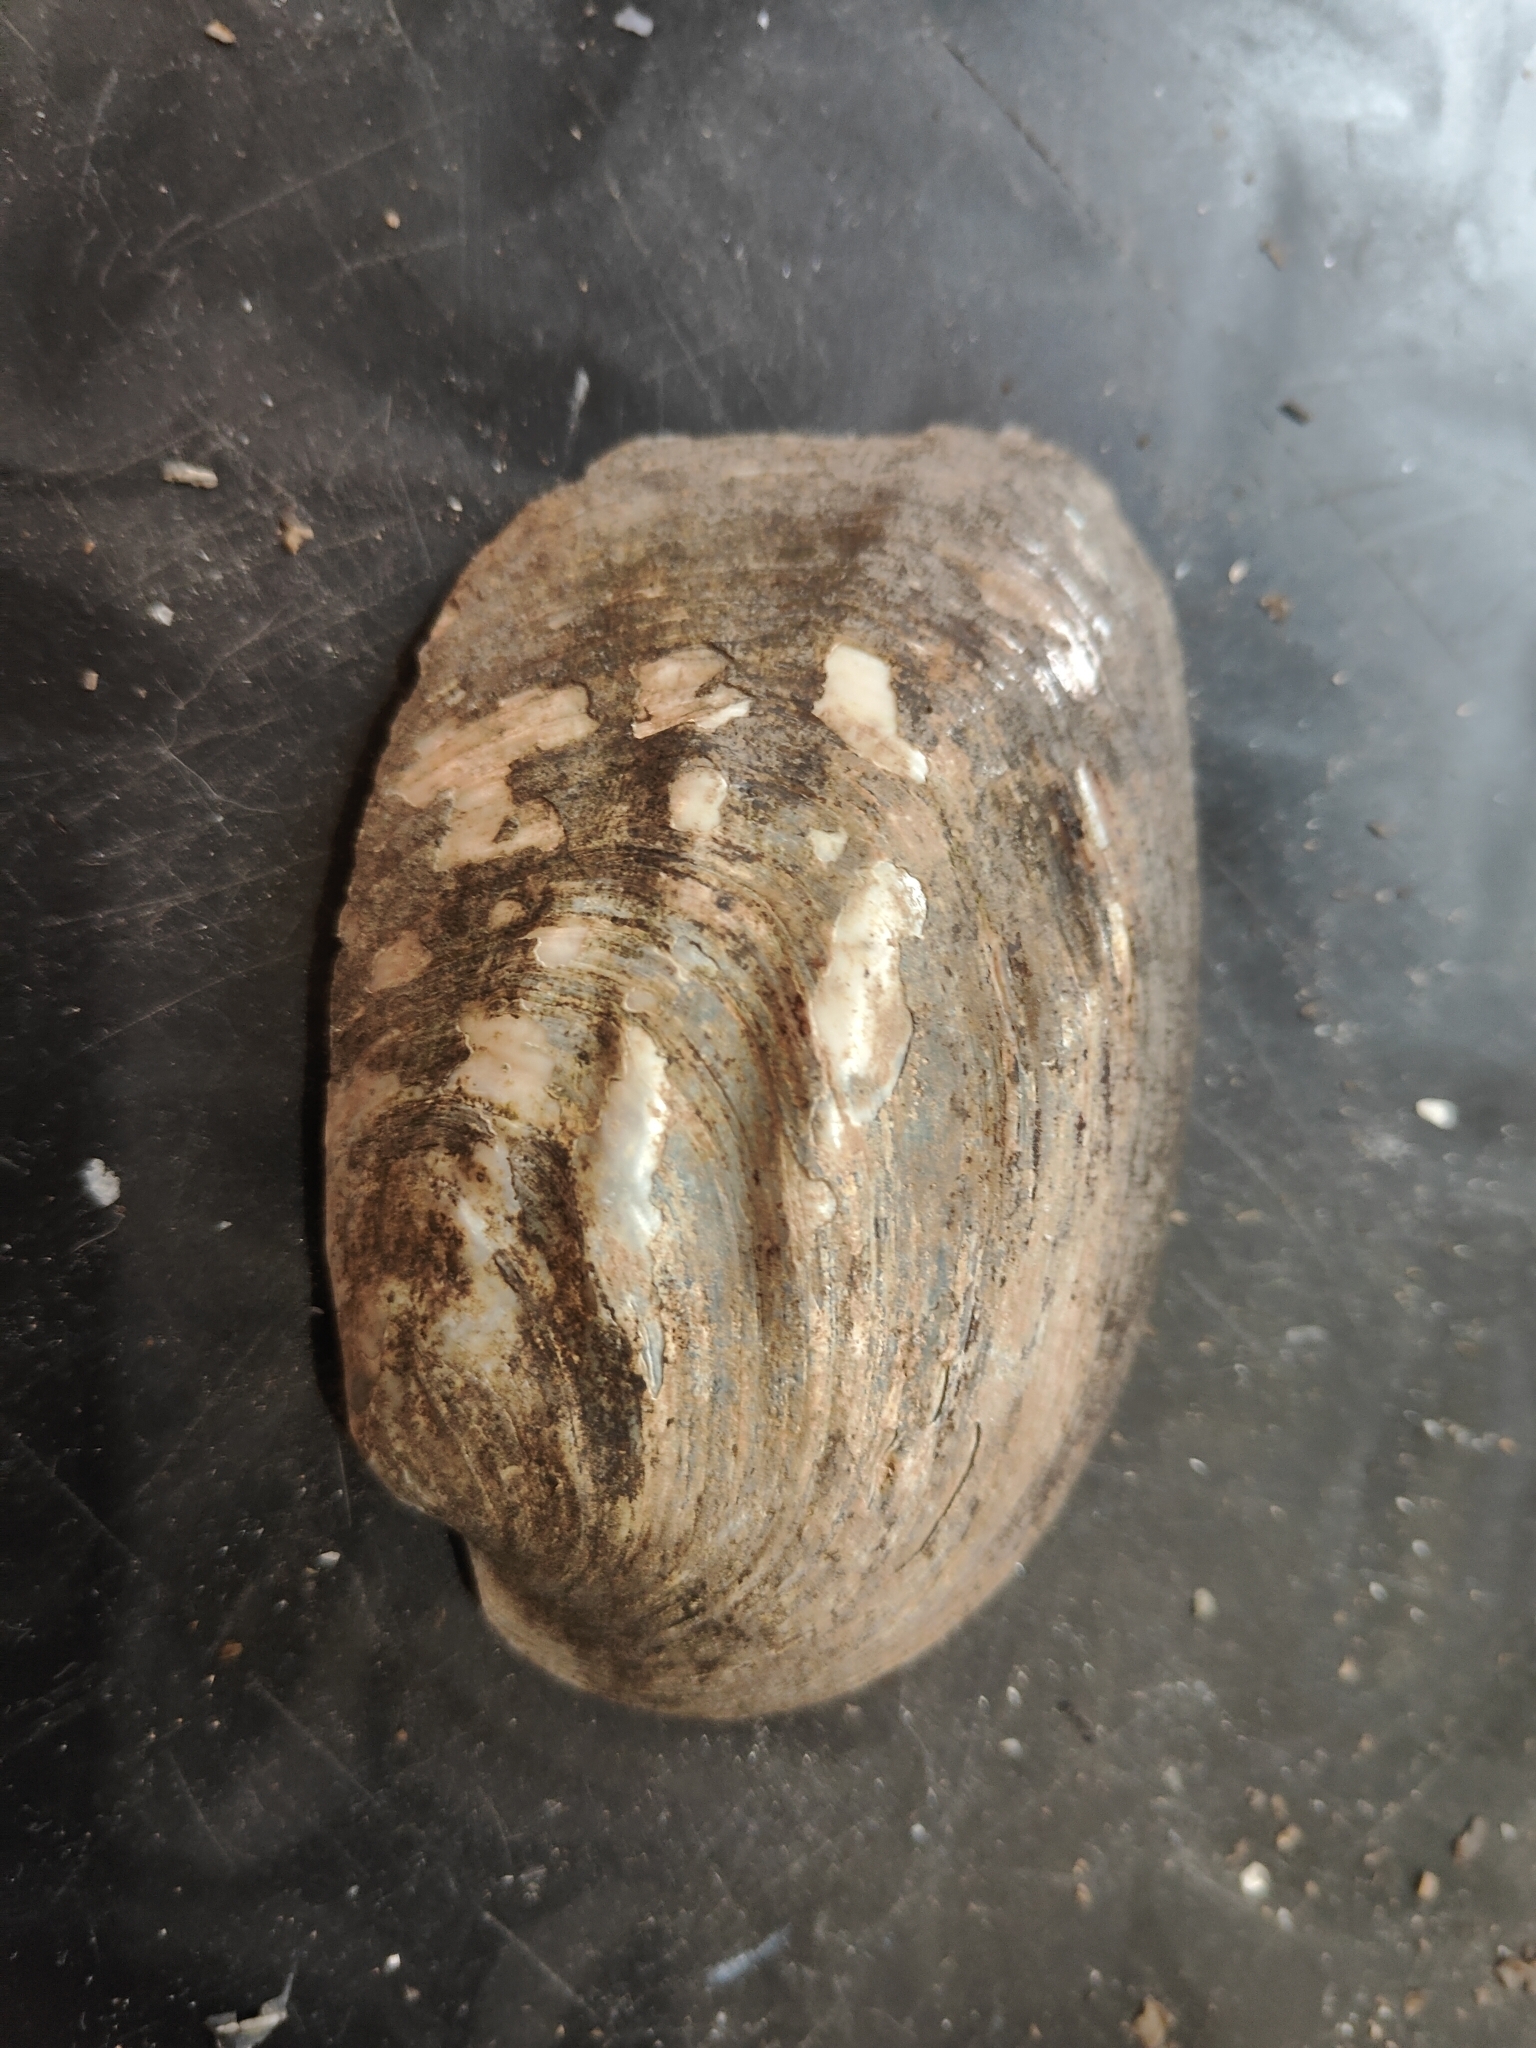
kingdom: Animalia
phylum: Mollusca
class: Bivalvia
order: Unionida
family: Unionidae
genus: Amblema
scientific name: Amblema plicata
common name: Threeridge
